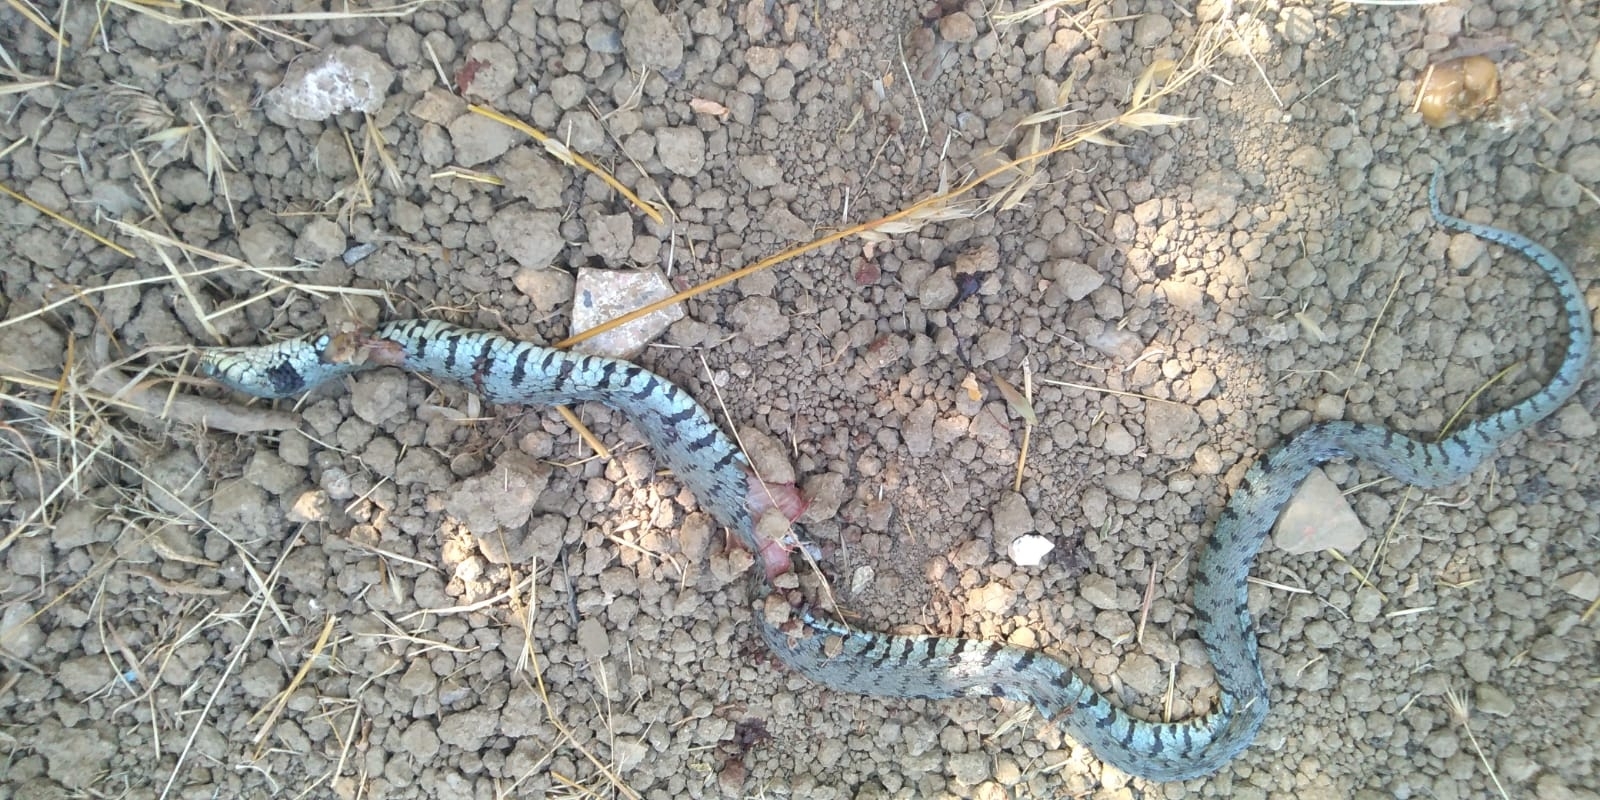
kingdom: Animalia
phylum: Chordata
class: Squamata
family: Colubridae
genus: Natrix
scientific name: Natrix helvetica
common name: Banded grass snake
